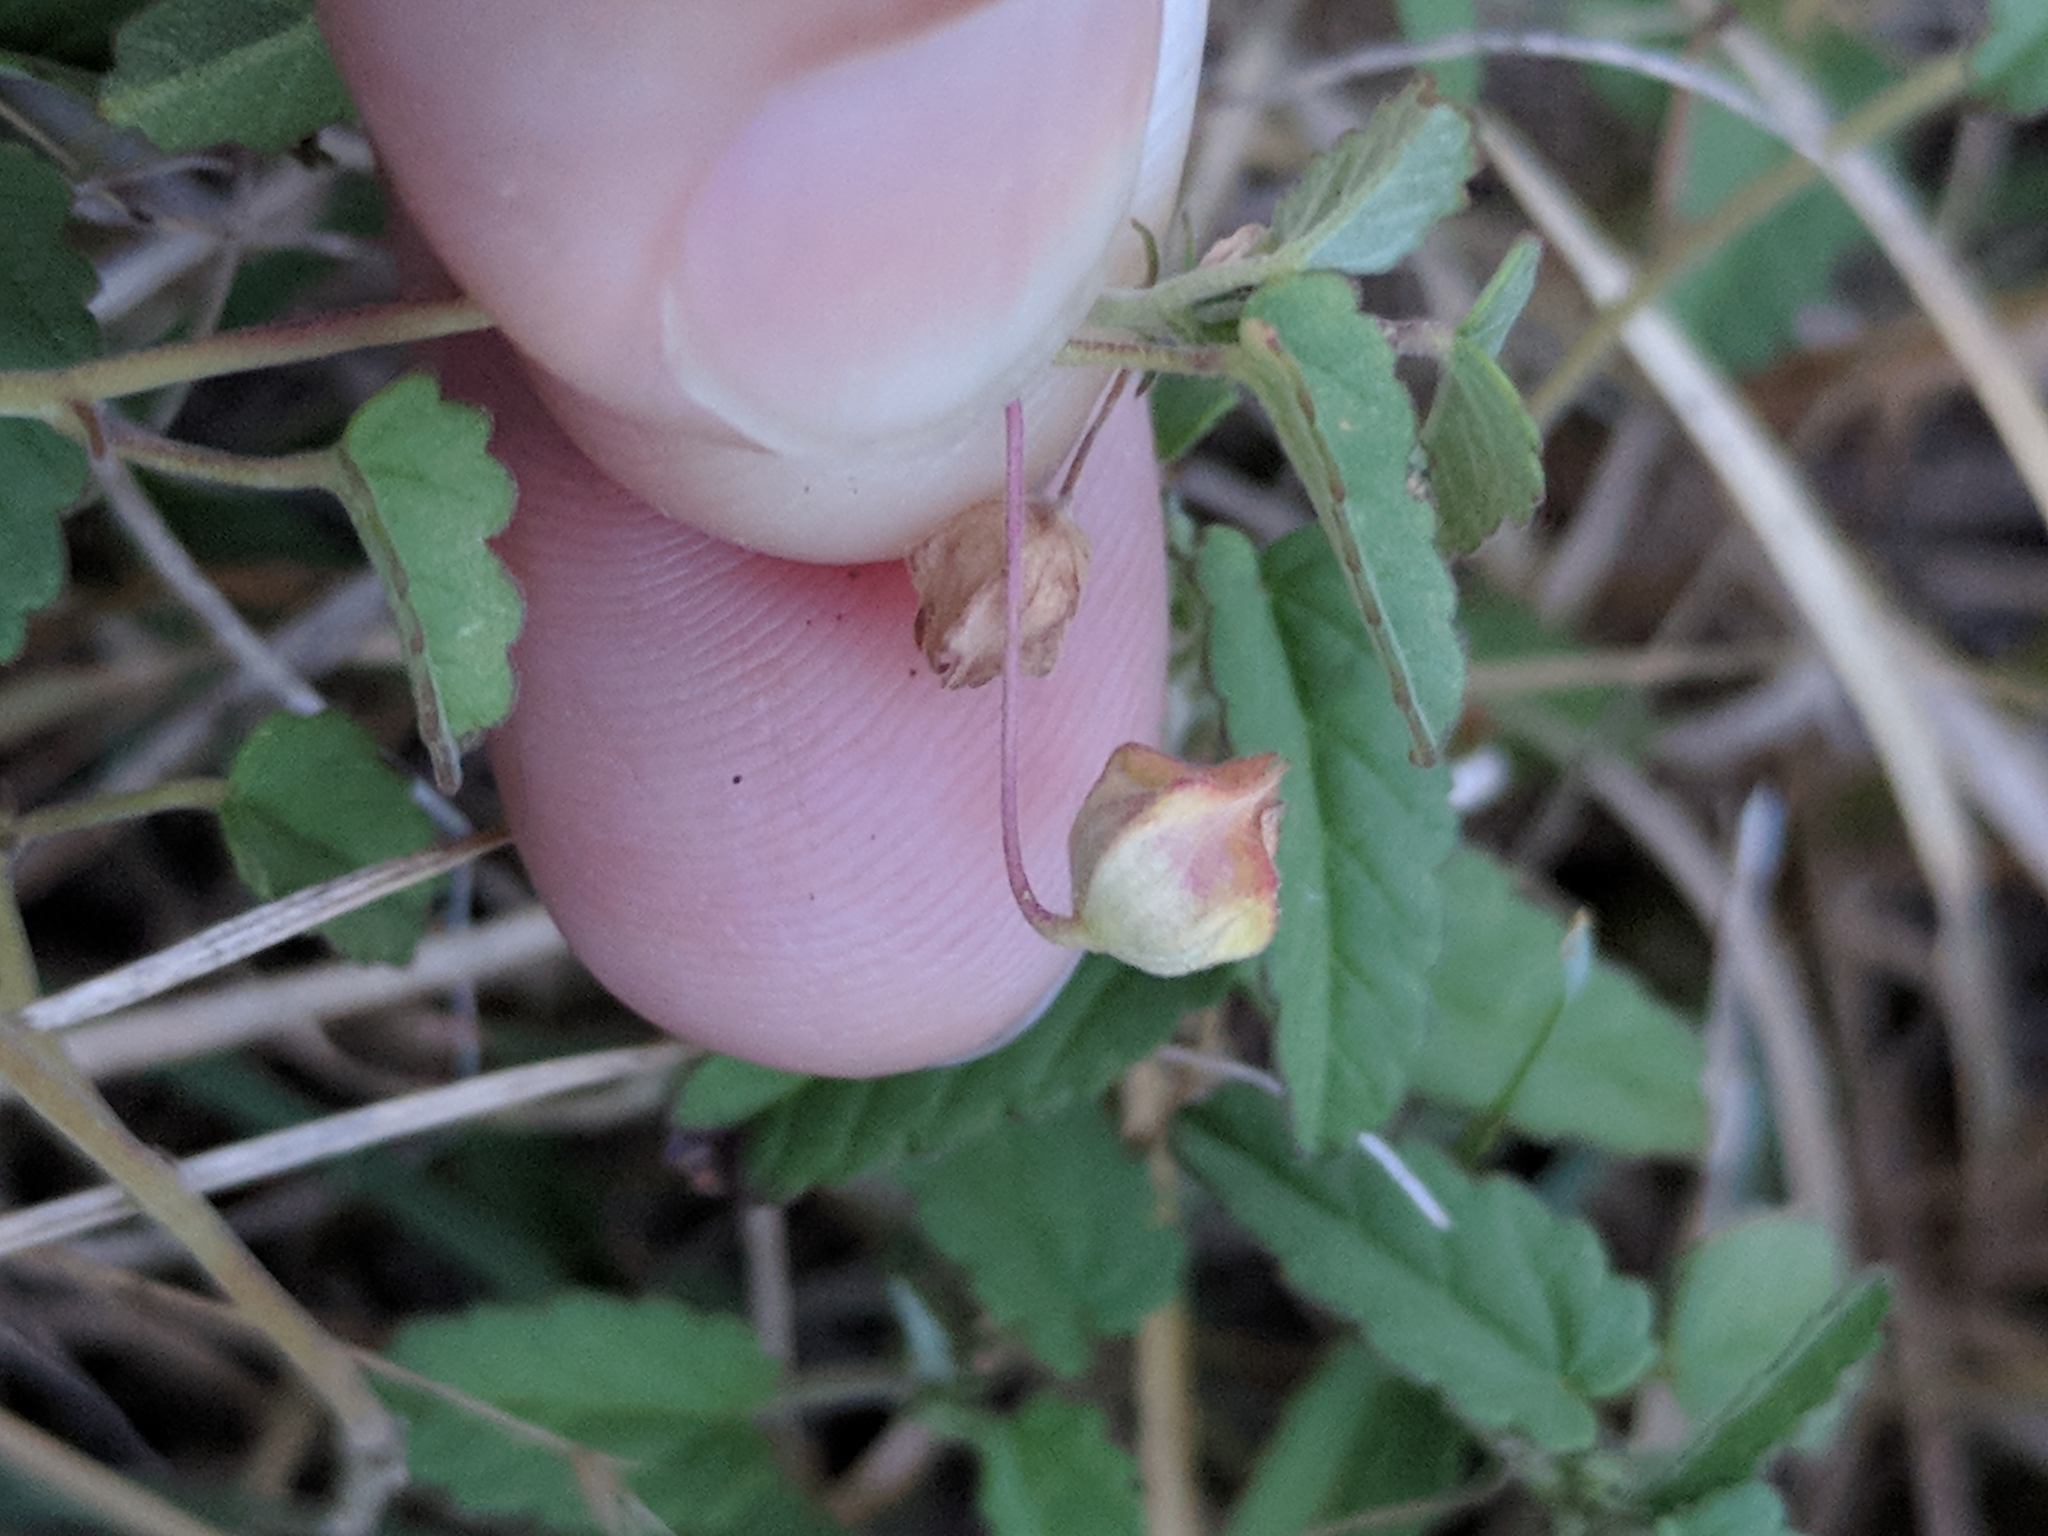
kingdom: Plantae
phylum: Tracheophyta
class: Magnoliopsida
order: Malvales
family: Malvaceae
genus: Sida
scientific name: Sida abutilifolia
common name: Spreading fanpetals
